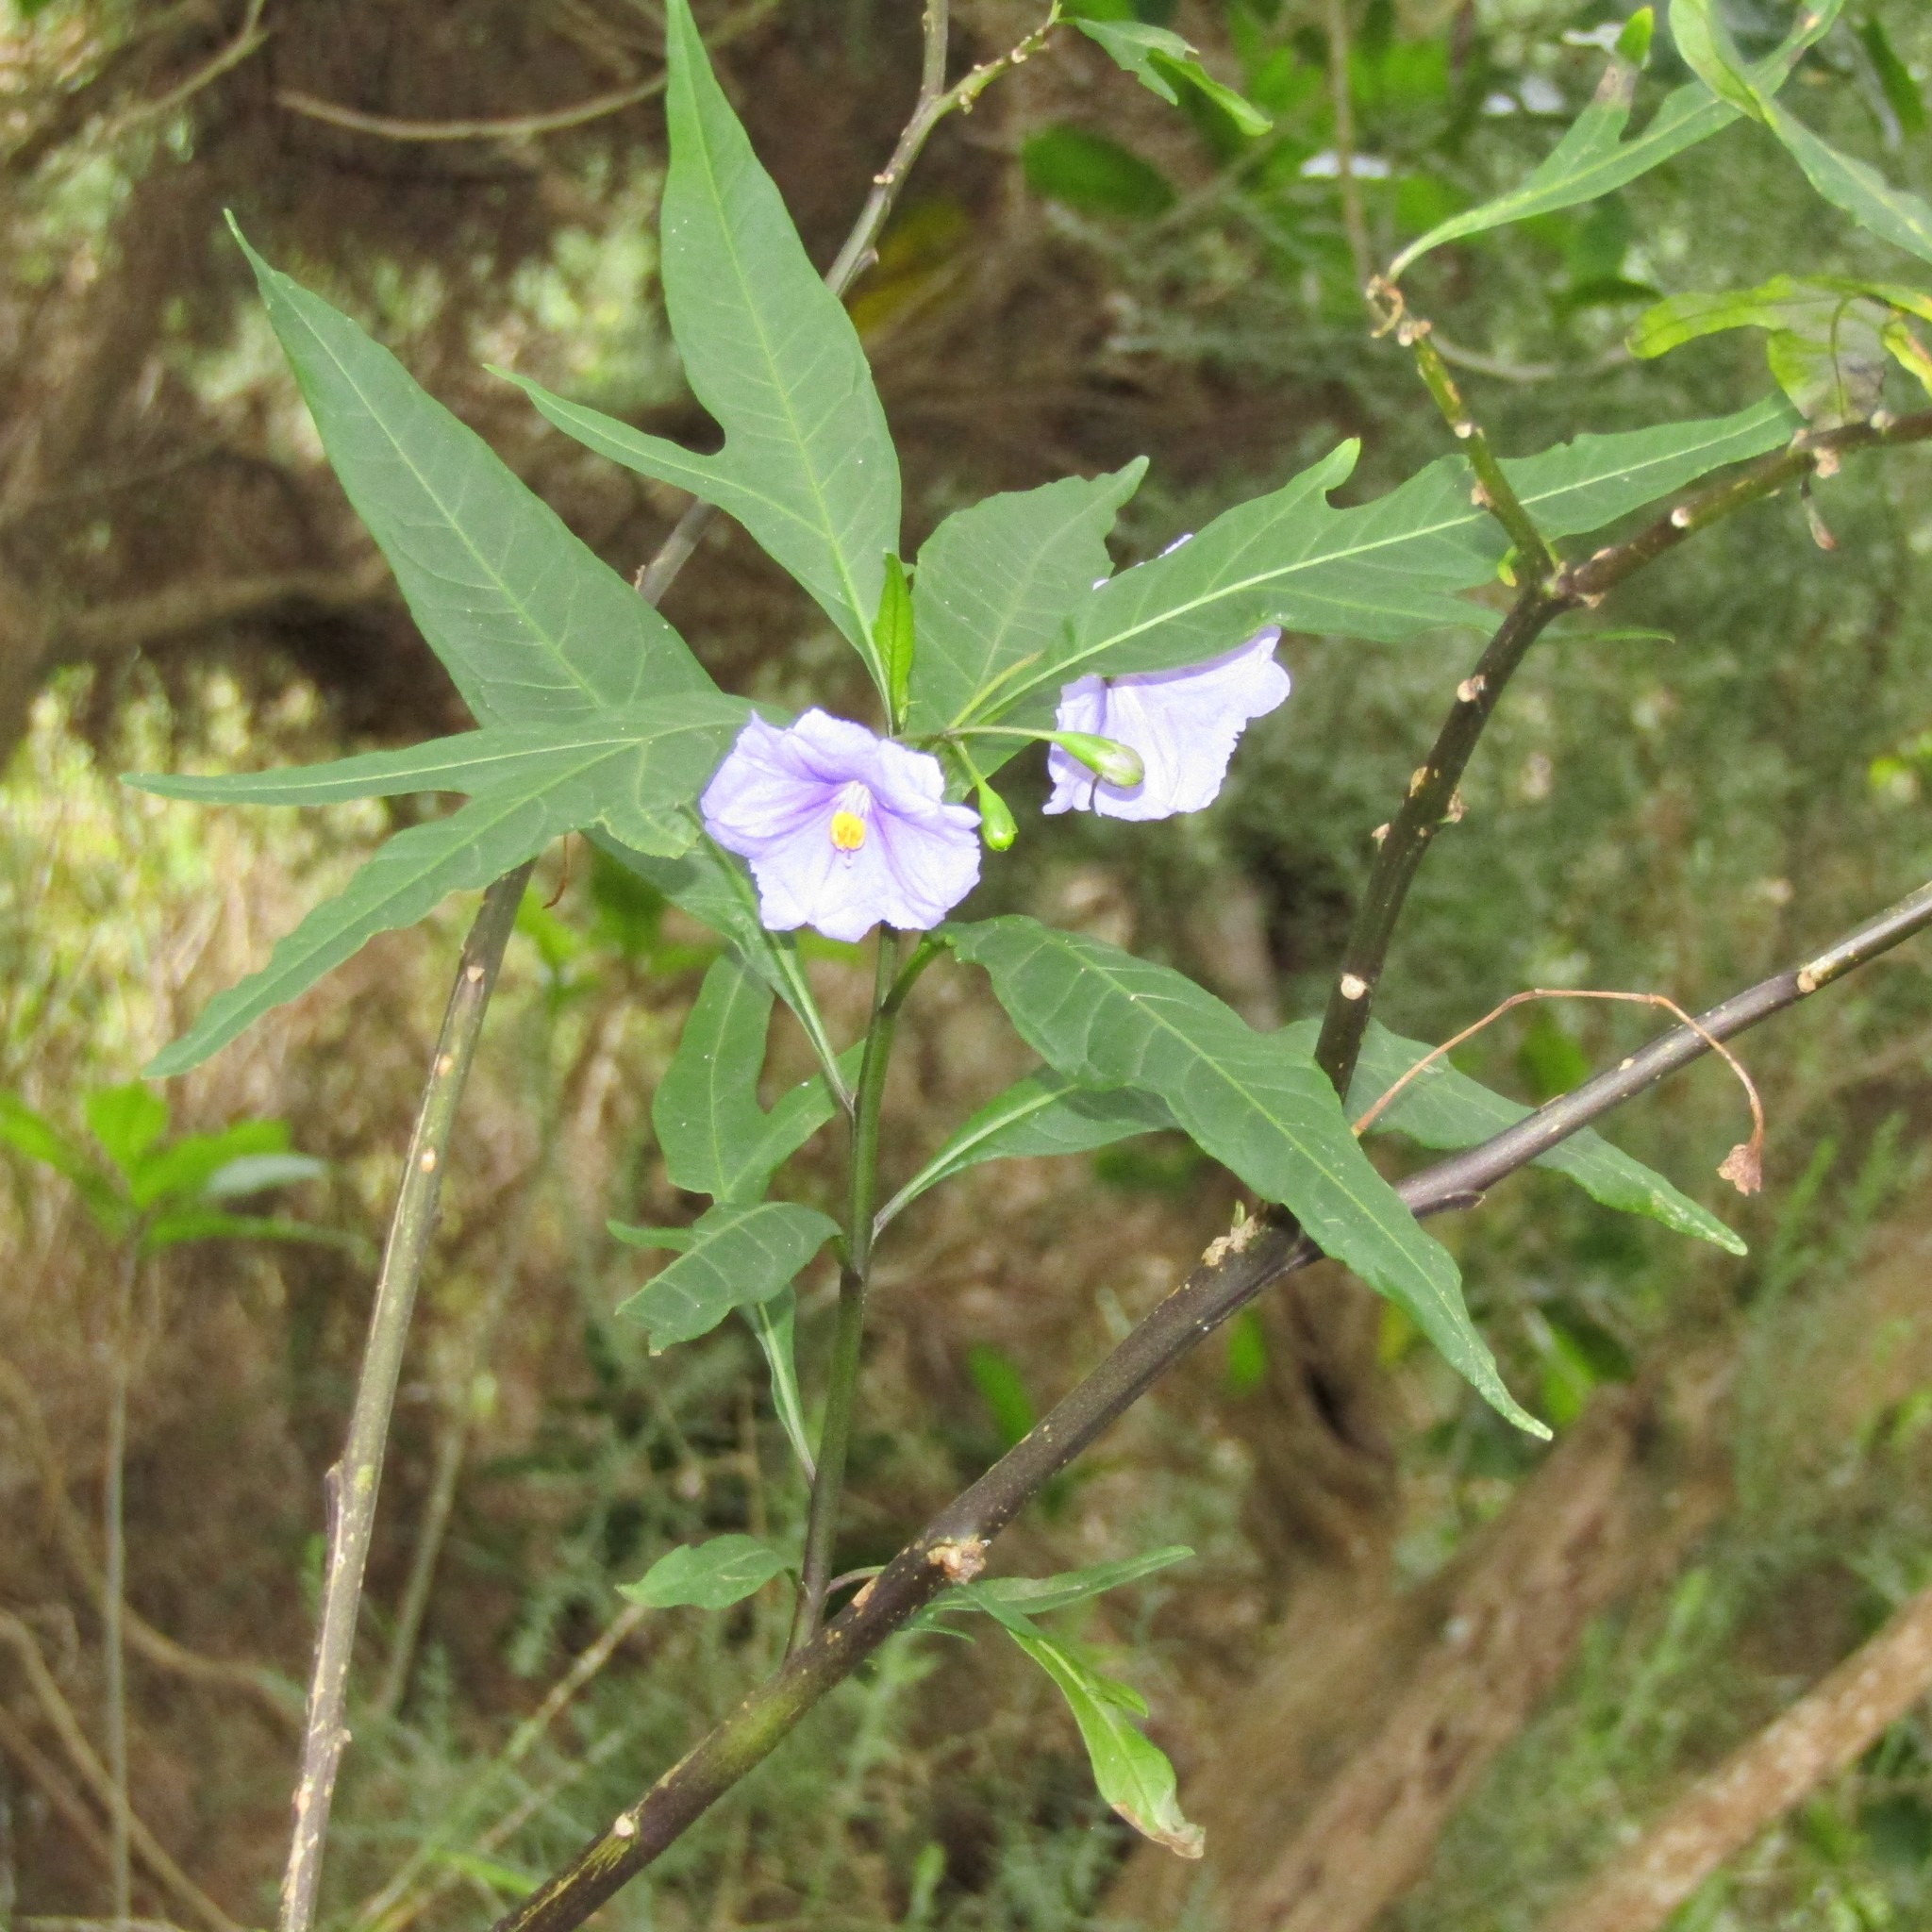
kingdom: Plantae
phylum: Tracheophyta
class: Magnoliopsida
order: Solanales
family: Solanaceae
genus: Solanum
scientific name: Solanum laciniatum
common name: Kangaroo-apple
